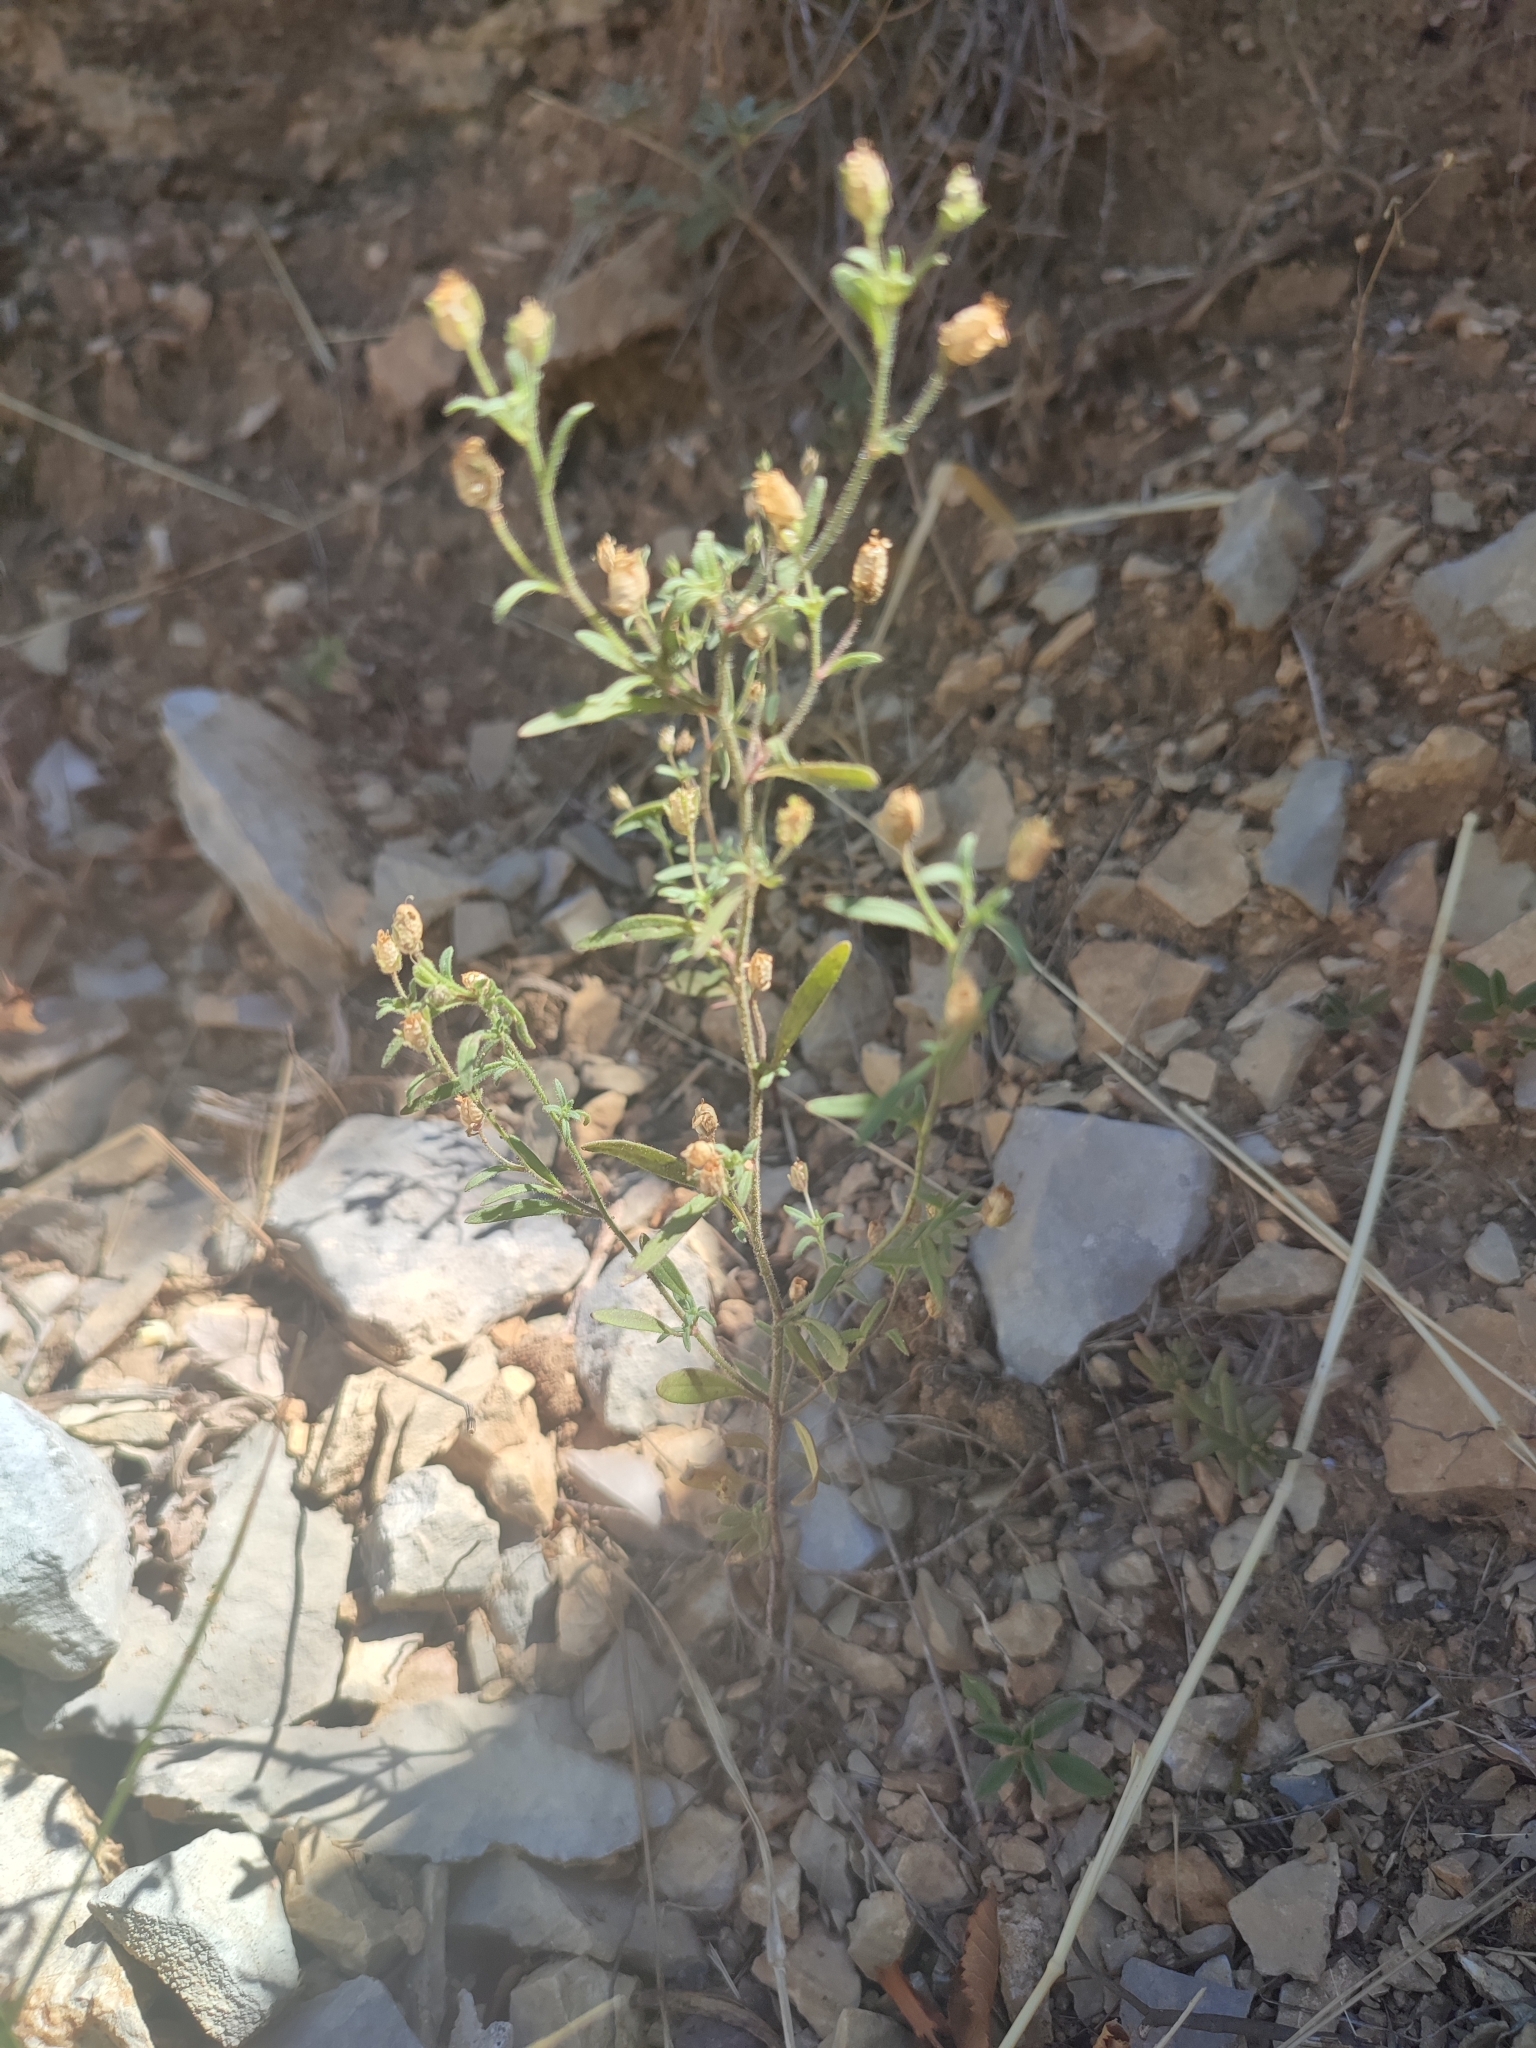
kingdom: Plantae
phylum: Tracheophyta
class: Magnoliopsida
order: Lamiales
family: Plantaginaceae
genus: Chaenorhinum
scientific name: Chaenorhinum minus
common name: Dwarf snapdragon
